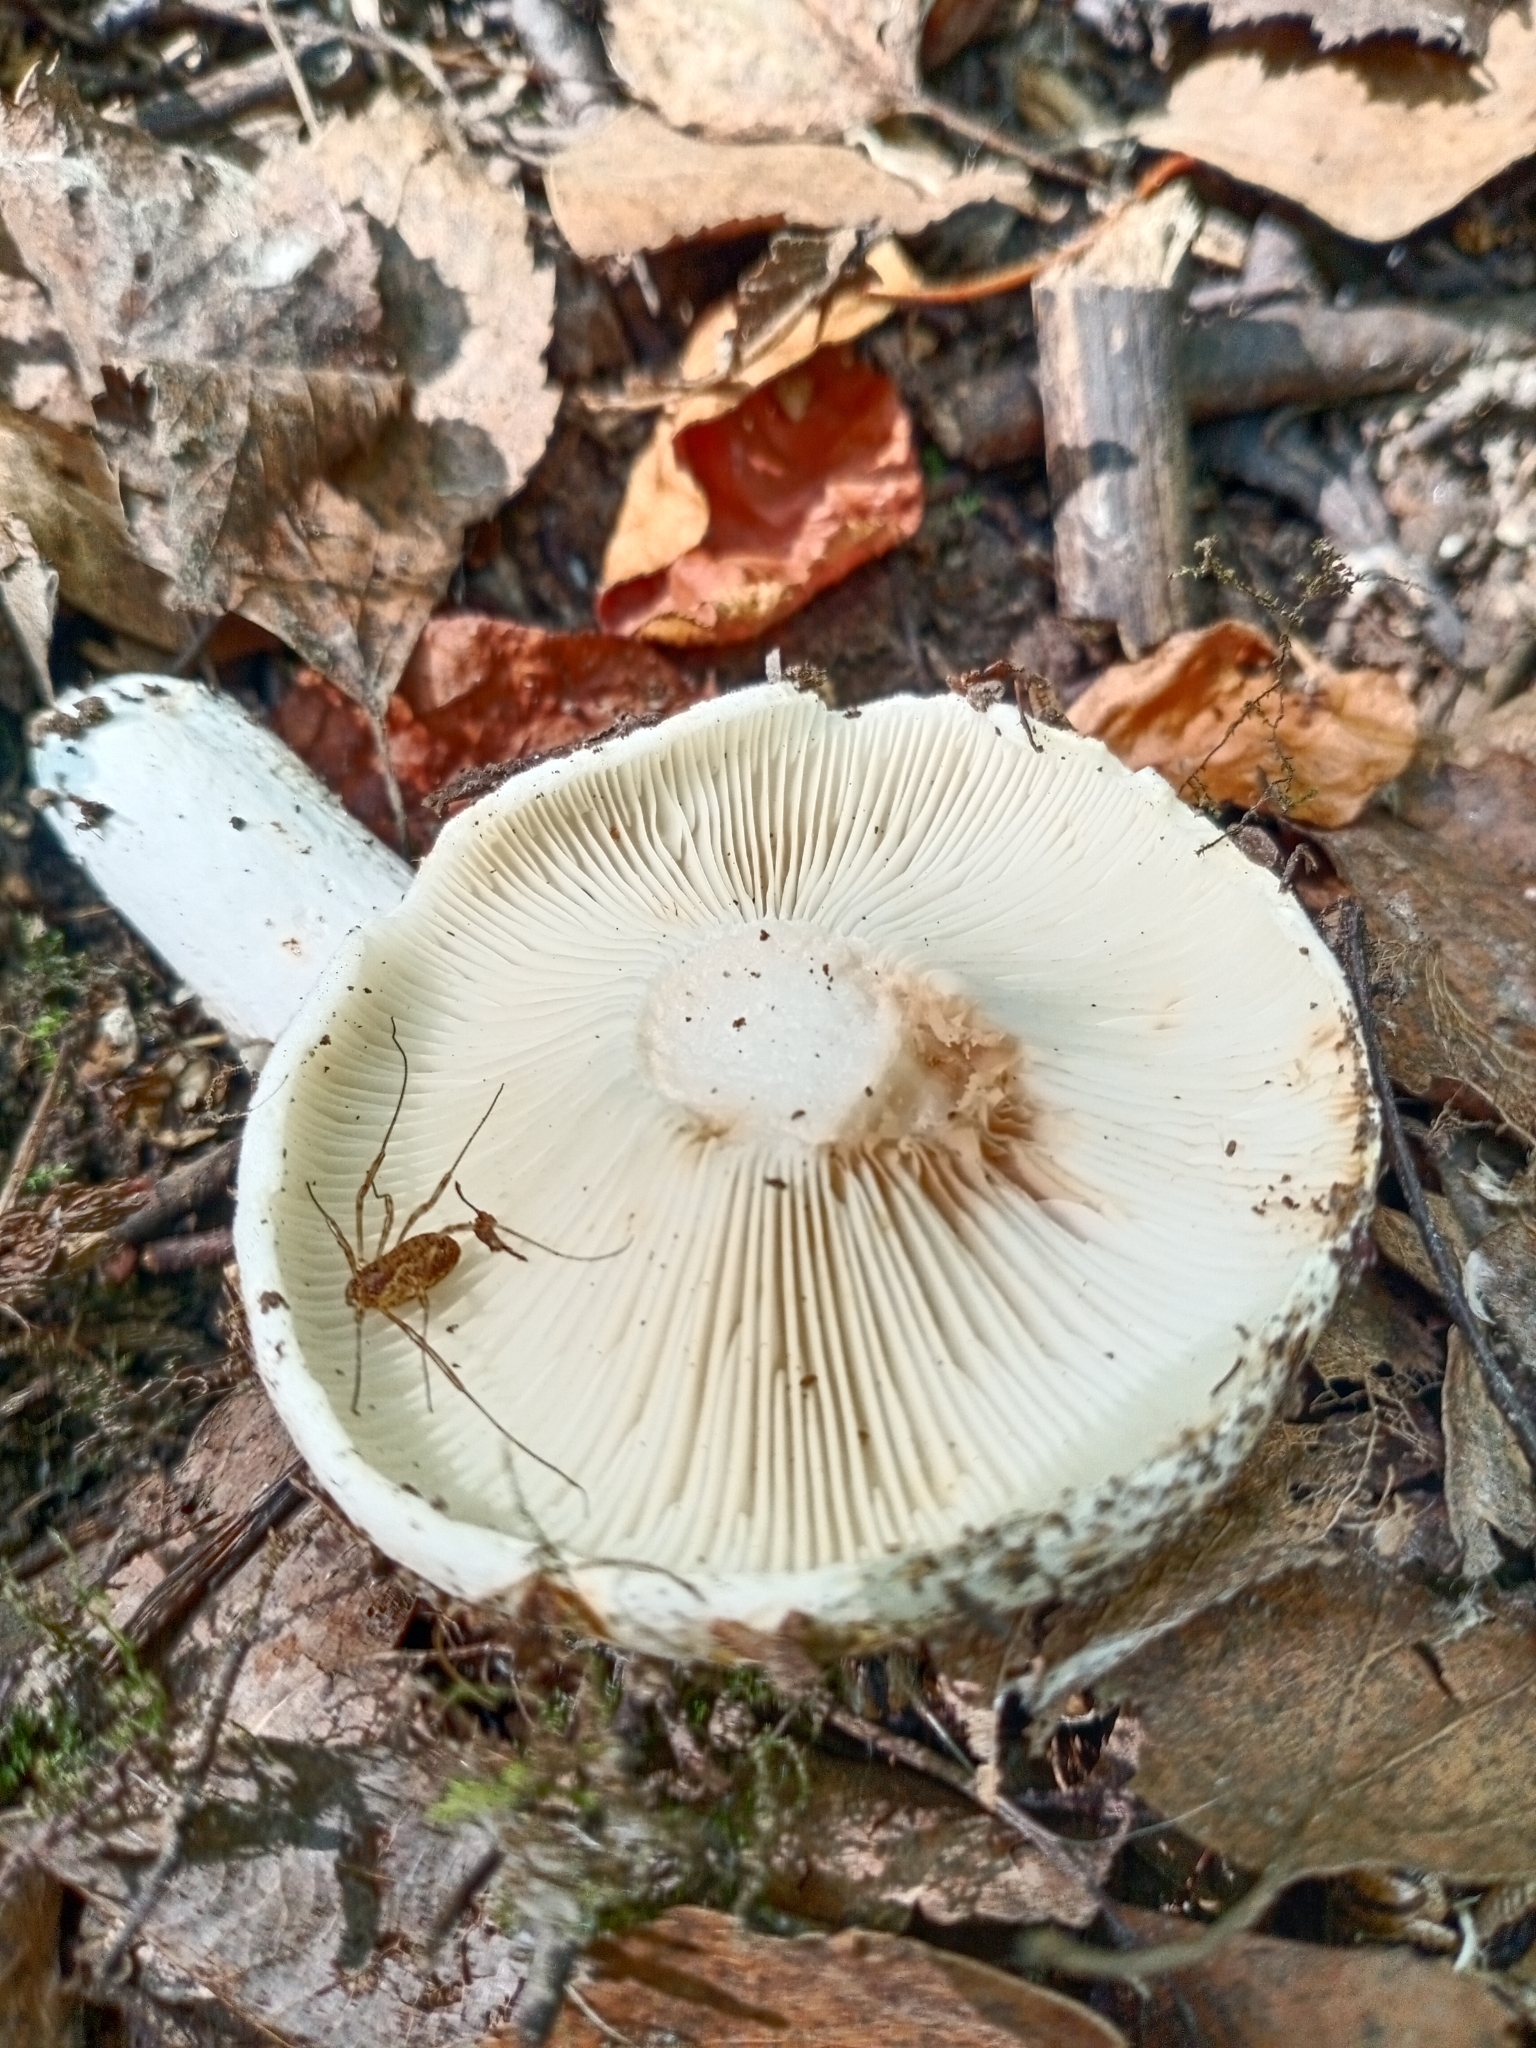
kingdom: Fungi
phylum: Basidiomycota
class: Agaricomycetes
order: Russulales
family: Russulaceae
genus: Russula
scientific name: Russula delica
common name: Milk white brittlegill
